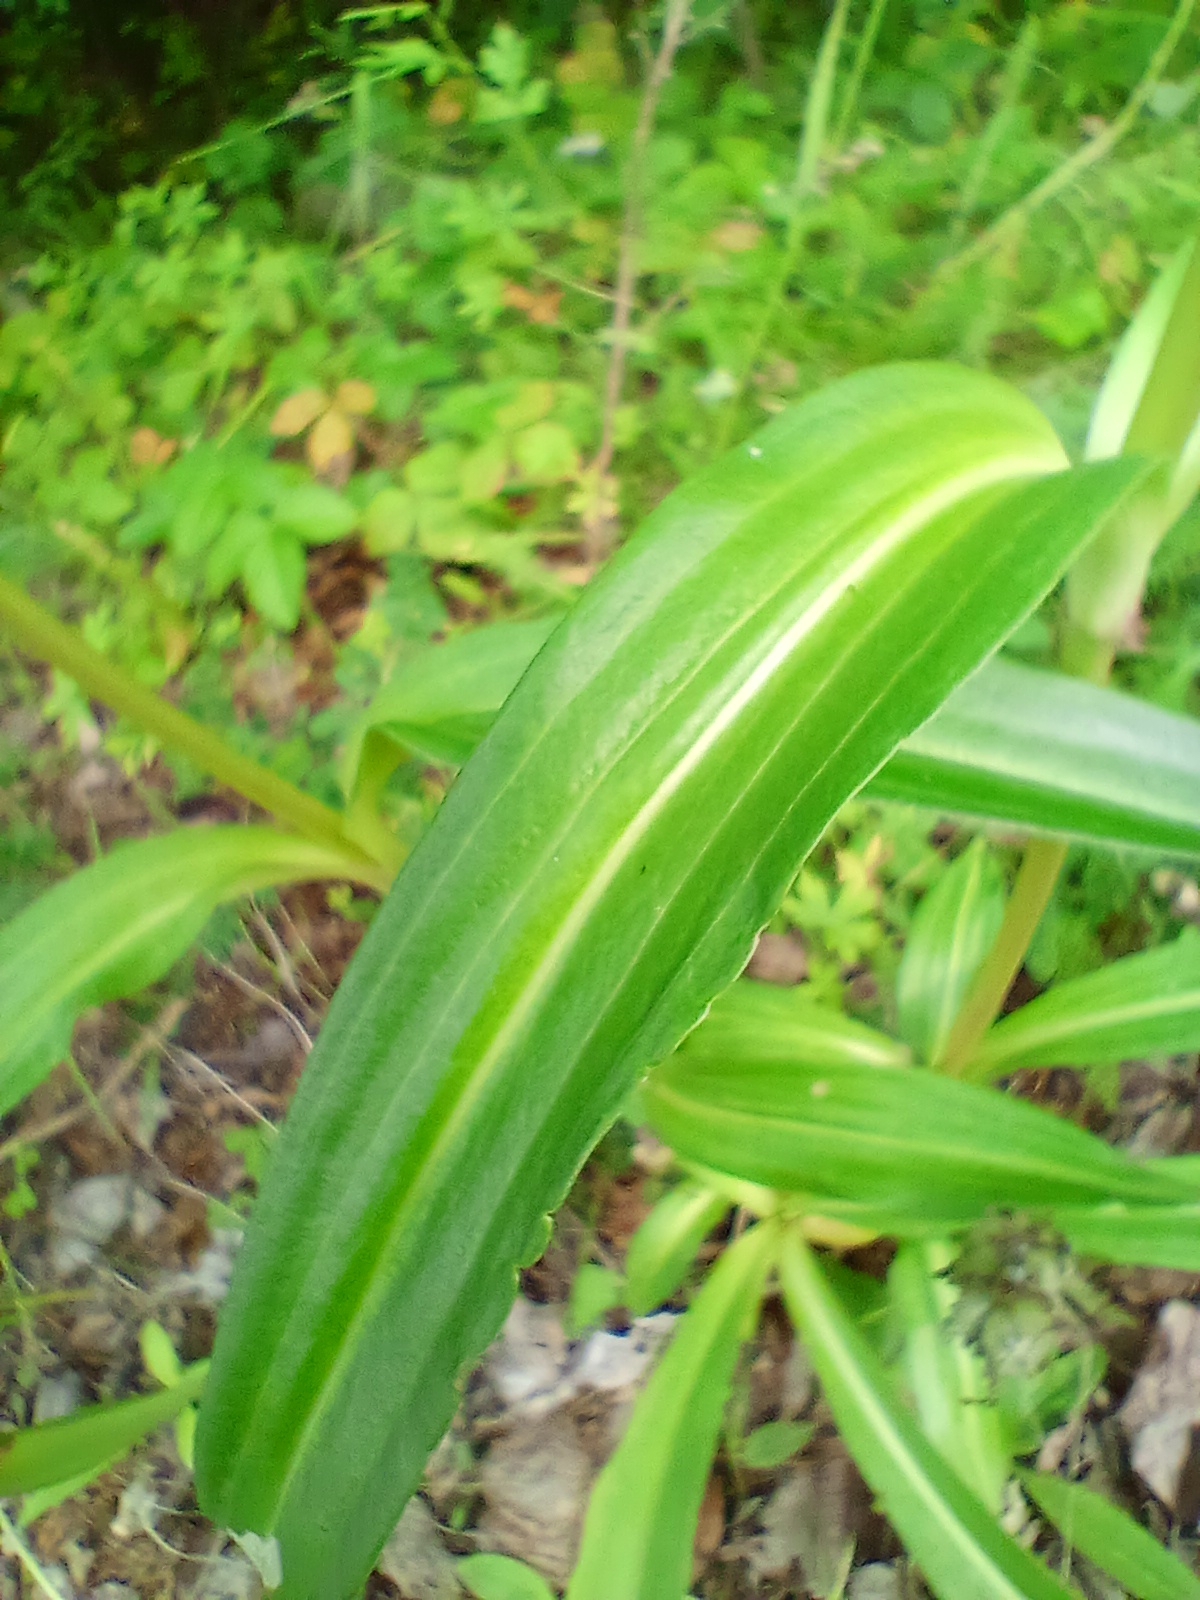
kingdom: Plantae
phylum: Tracheophyta
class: Magnoliopsida
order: Gentianales
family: Gentianaceae
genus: Gentiana
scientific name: Gentiana macrophylla
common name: Large-leaf gentian
